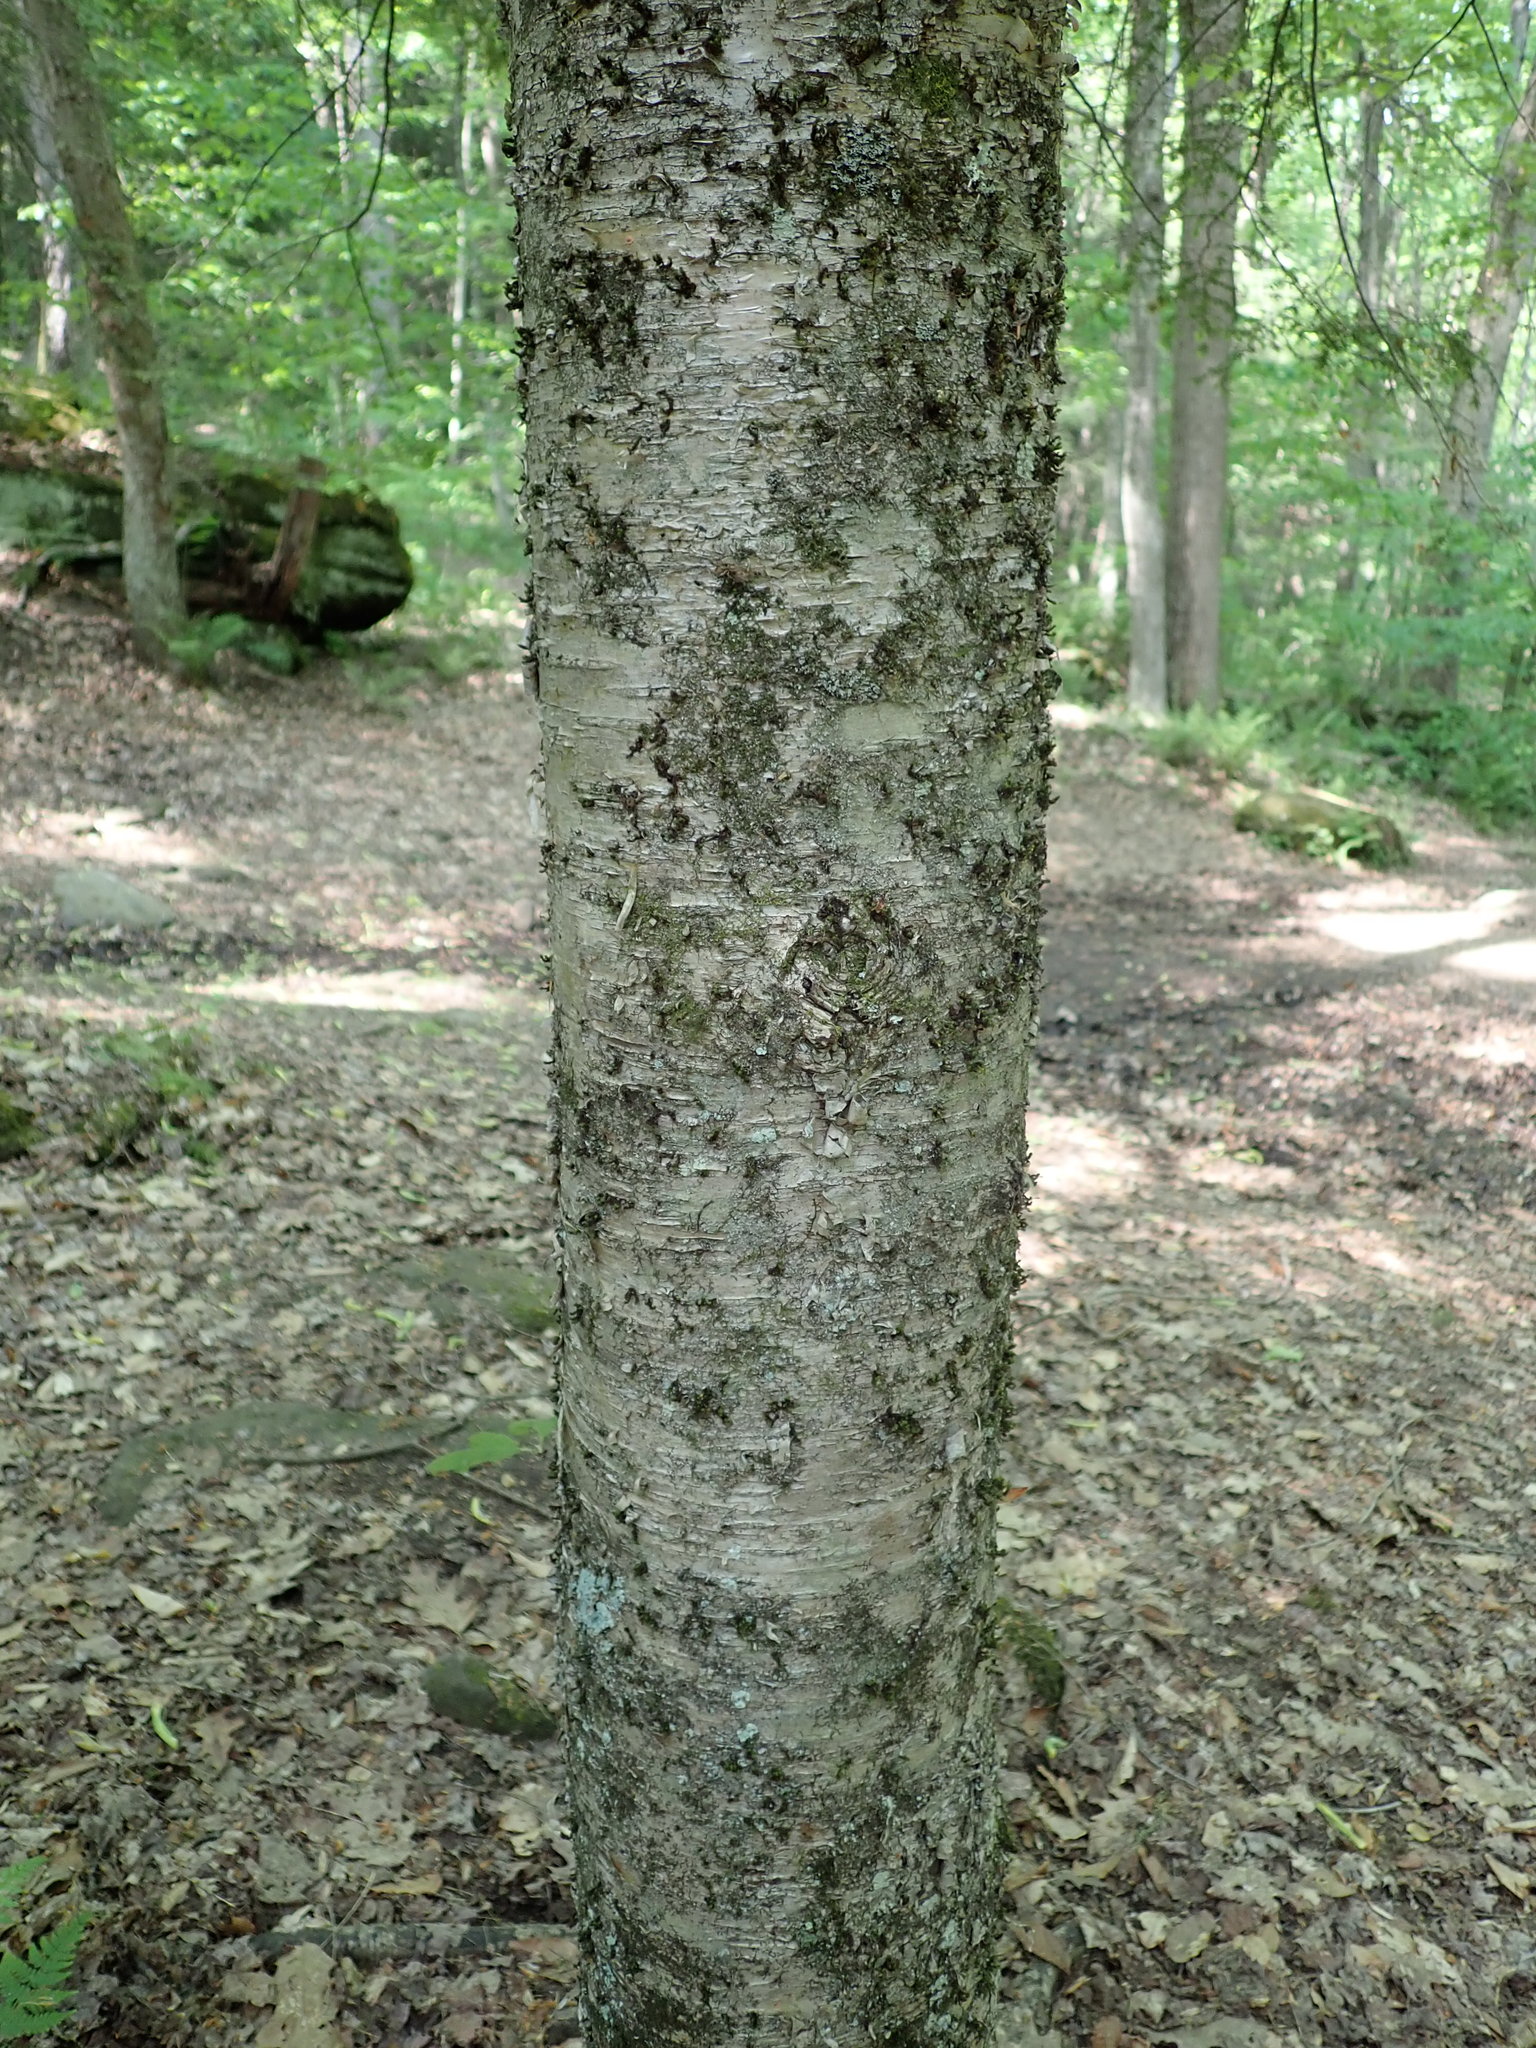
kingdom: Plantae
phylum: Tracheophyta
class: Magnoliopsida
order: Fagales
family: Betulaceae
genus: Betula
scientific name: Betula alleghaniensis
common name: Yellow birch
